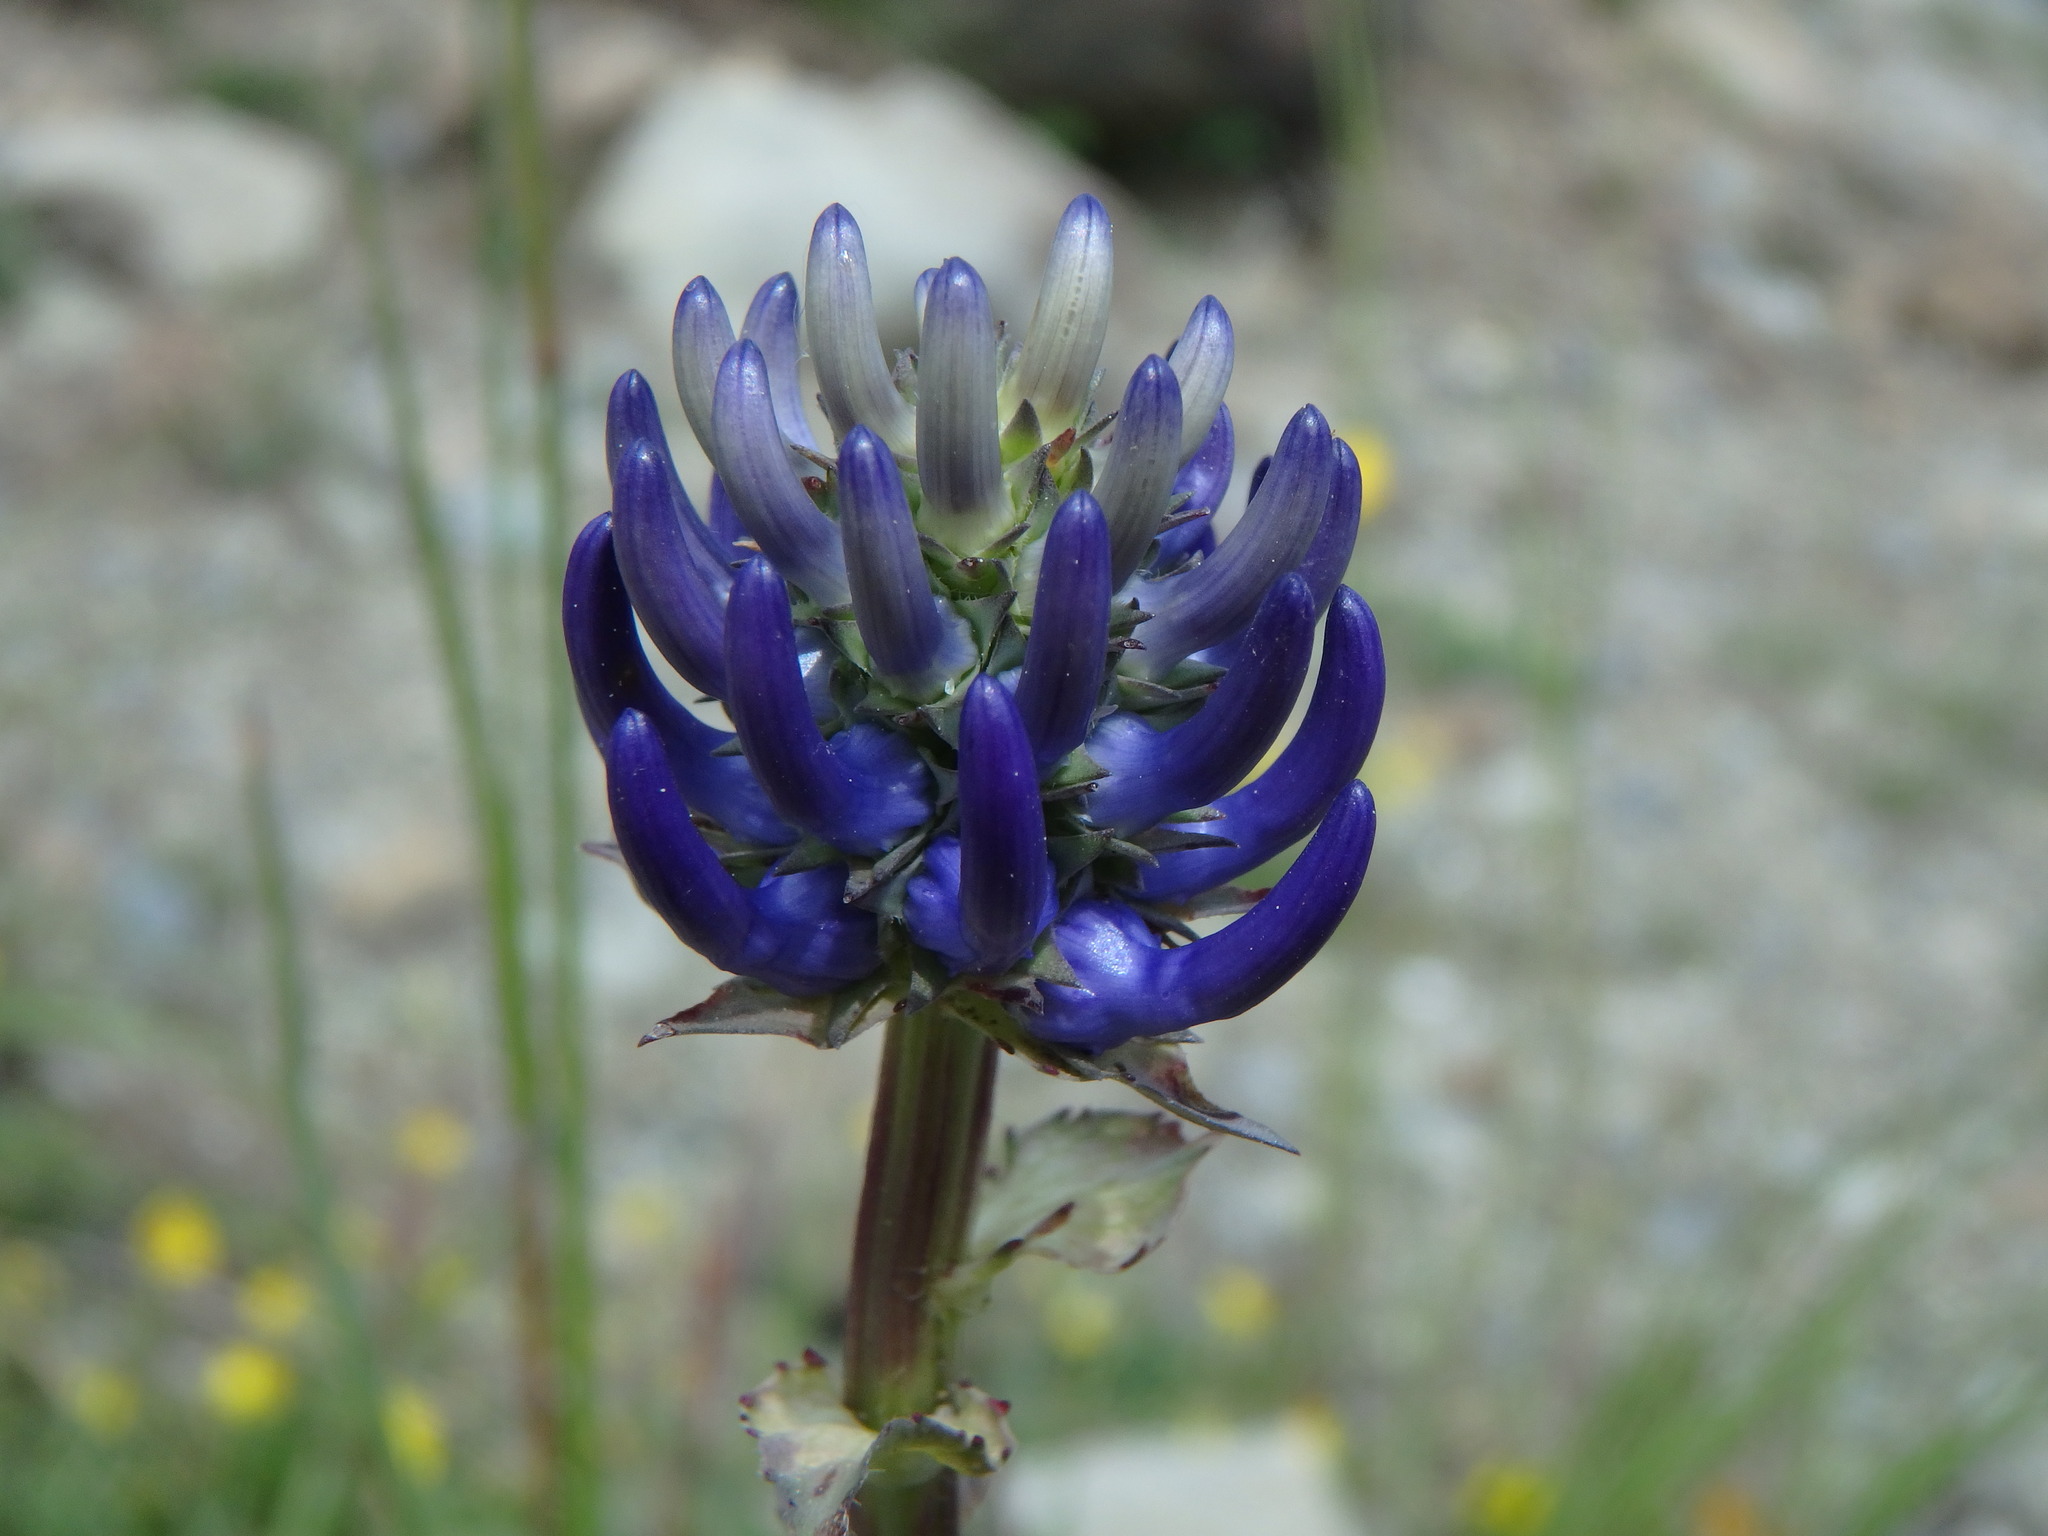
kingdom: Plantae
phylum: Tracheophyta
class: Magnoliopsida
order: Asterales
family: Campanulaceae
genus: Phyteuma
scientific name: Phyteuma orbiculare
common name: Round-headed rampion
